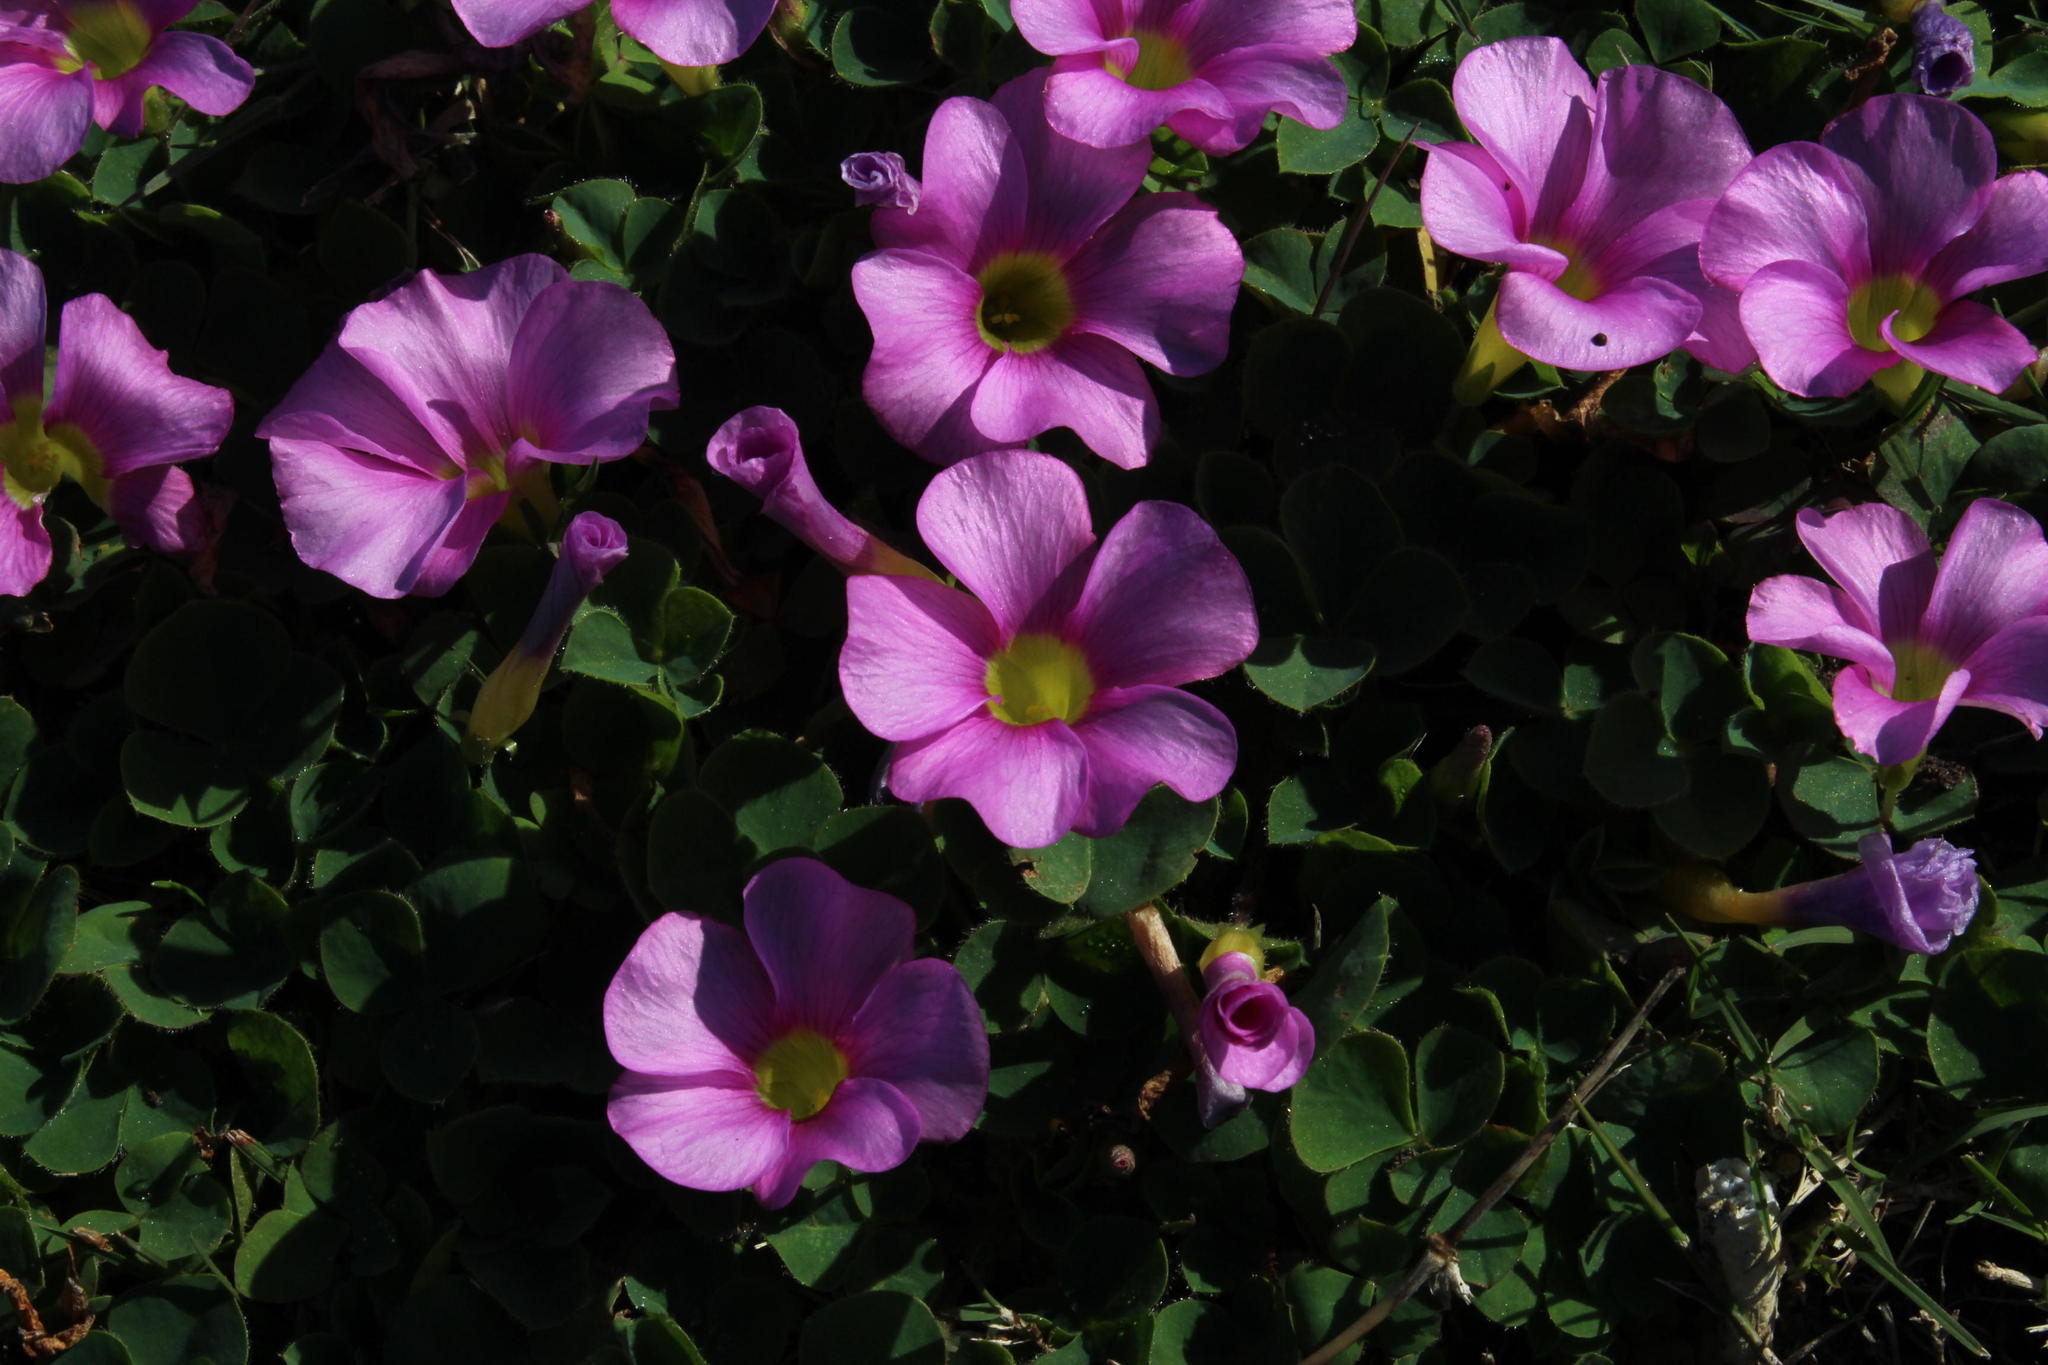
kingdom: Plantae
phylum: Tracheophyta
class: Magnoliopsida
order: Oxalidales
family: Oxalidaceae
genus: Oxalis
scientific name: Oxalis purpurea
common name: Purple woodsorrel
